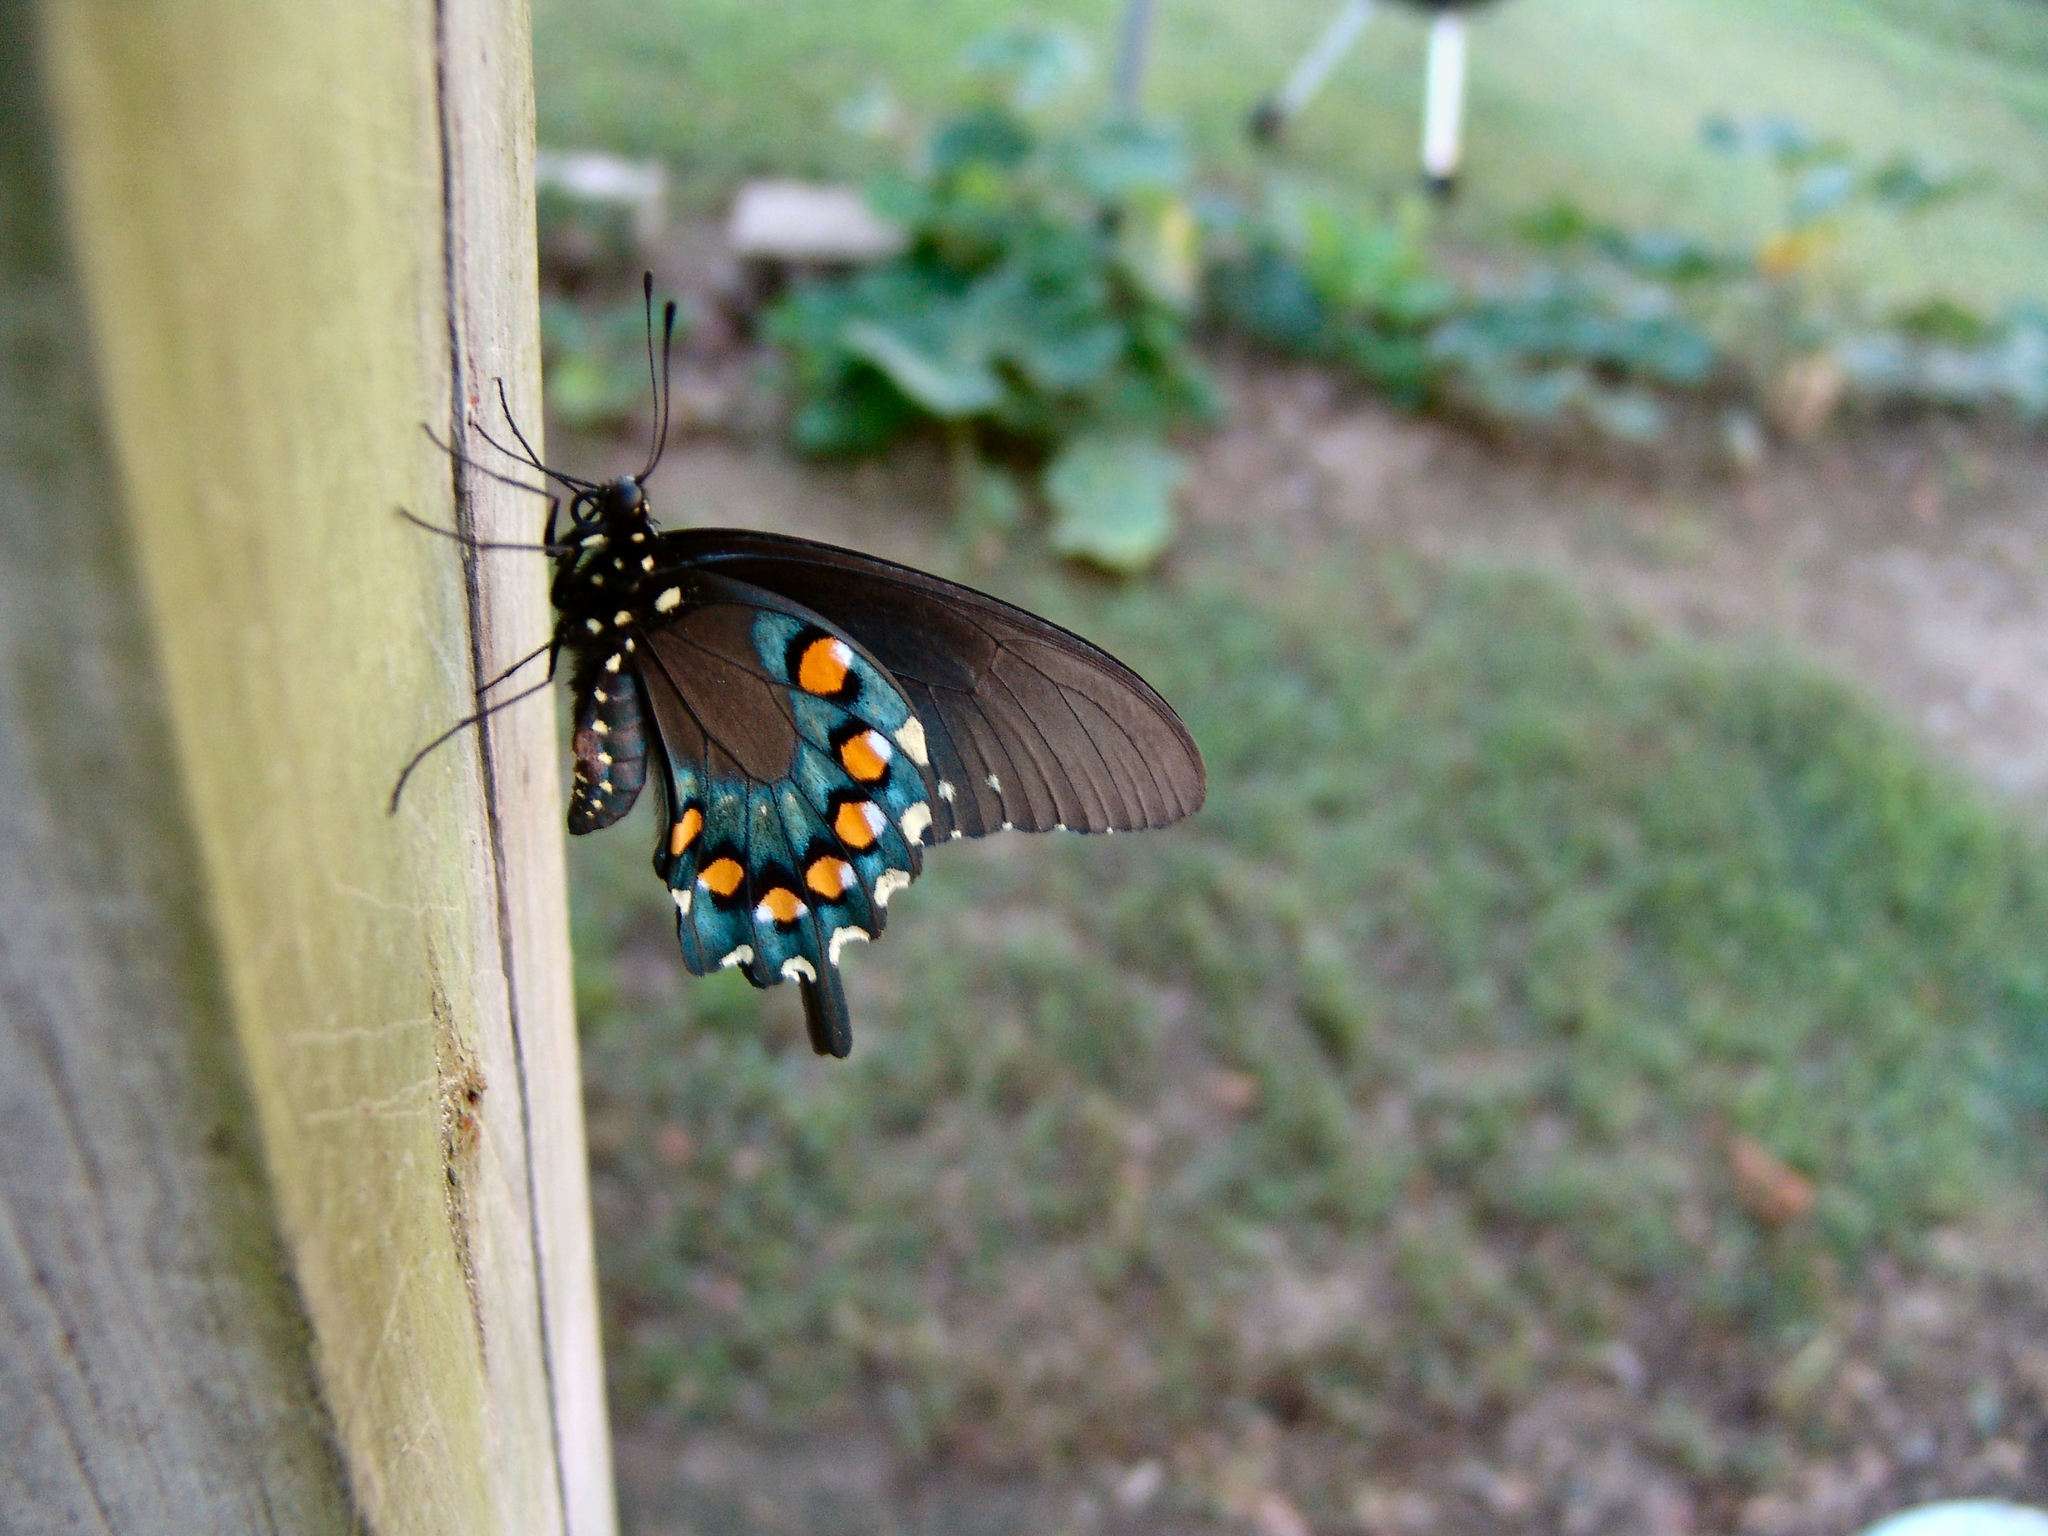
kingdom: Animalia
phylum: Arthropoda
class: Insecta
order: Lepidoptera
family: Papilionidae
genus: Battus
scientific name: Battus philenor
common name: Pipevine swallowtail
